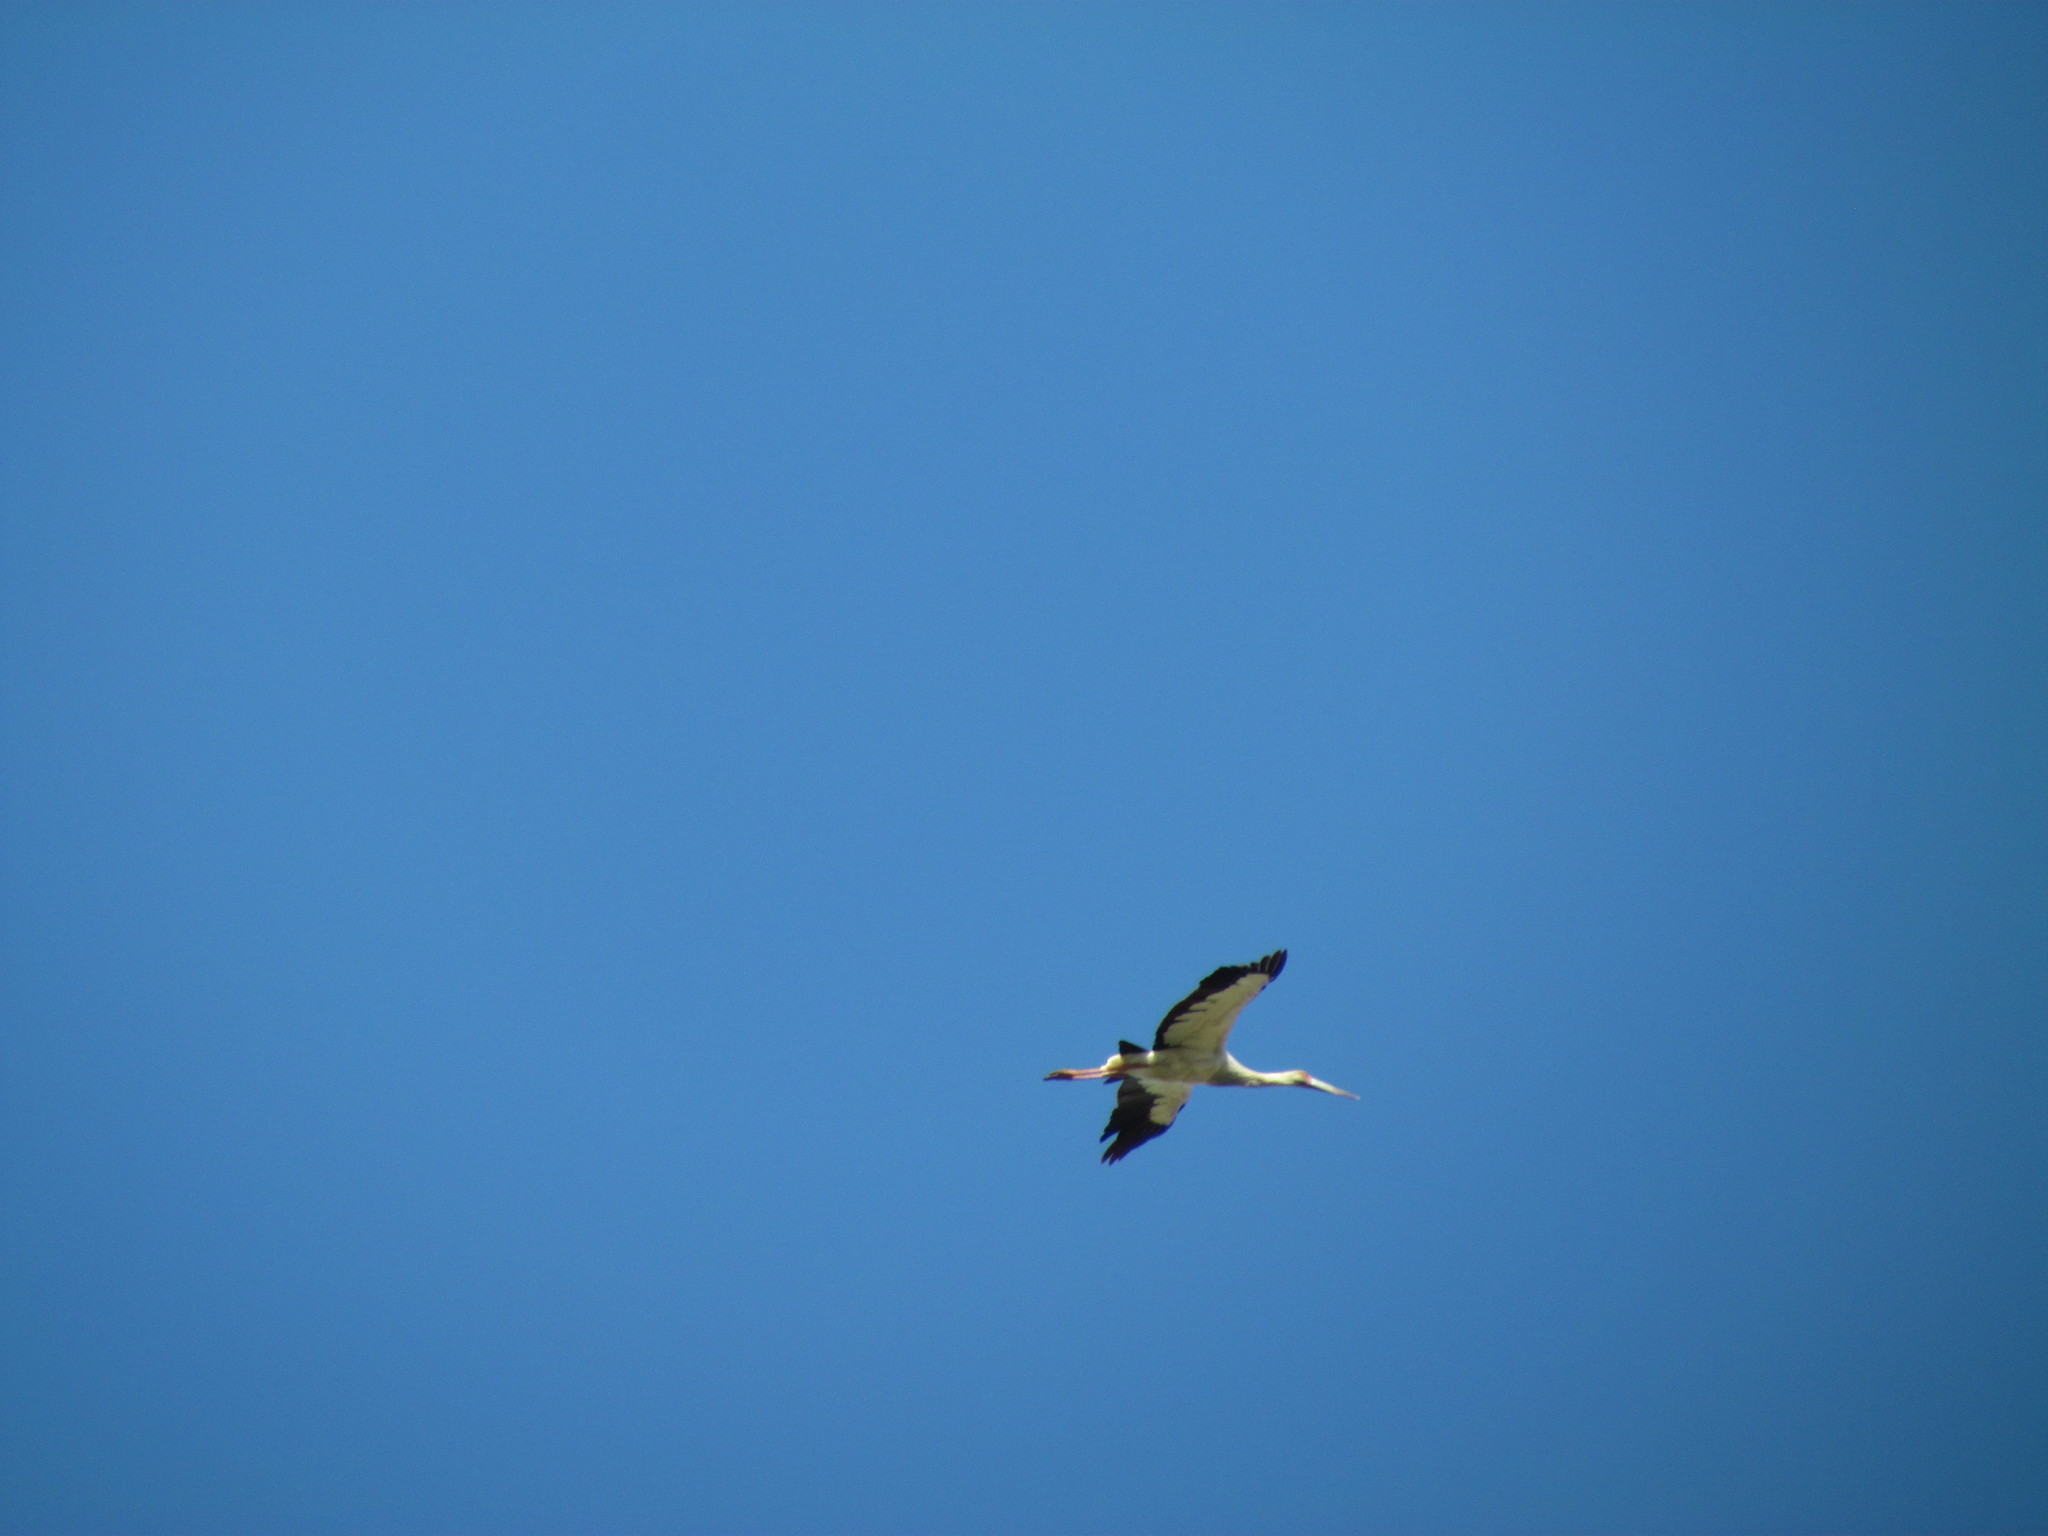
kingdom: Animalia
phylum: Chordata
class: Aves
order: Ciconiiformes
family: Ciconiidae
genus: Ciconia
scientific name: Ciconia maguari
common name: Maguari stork
